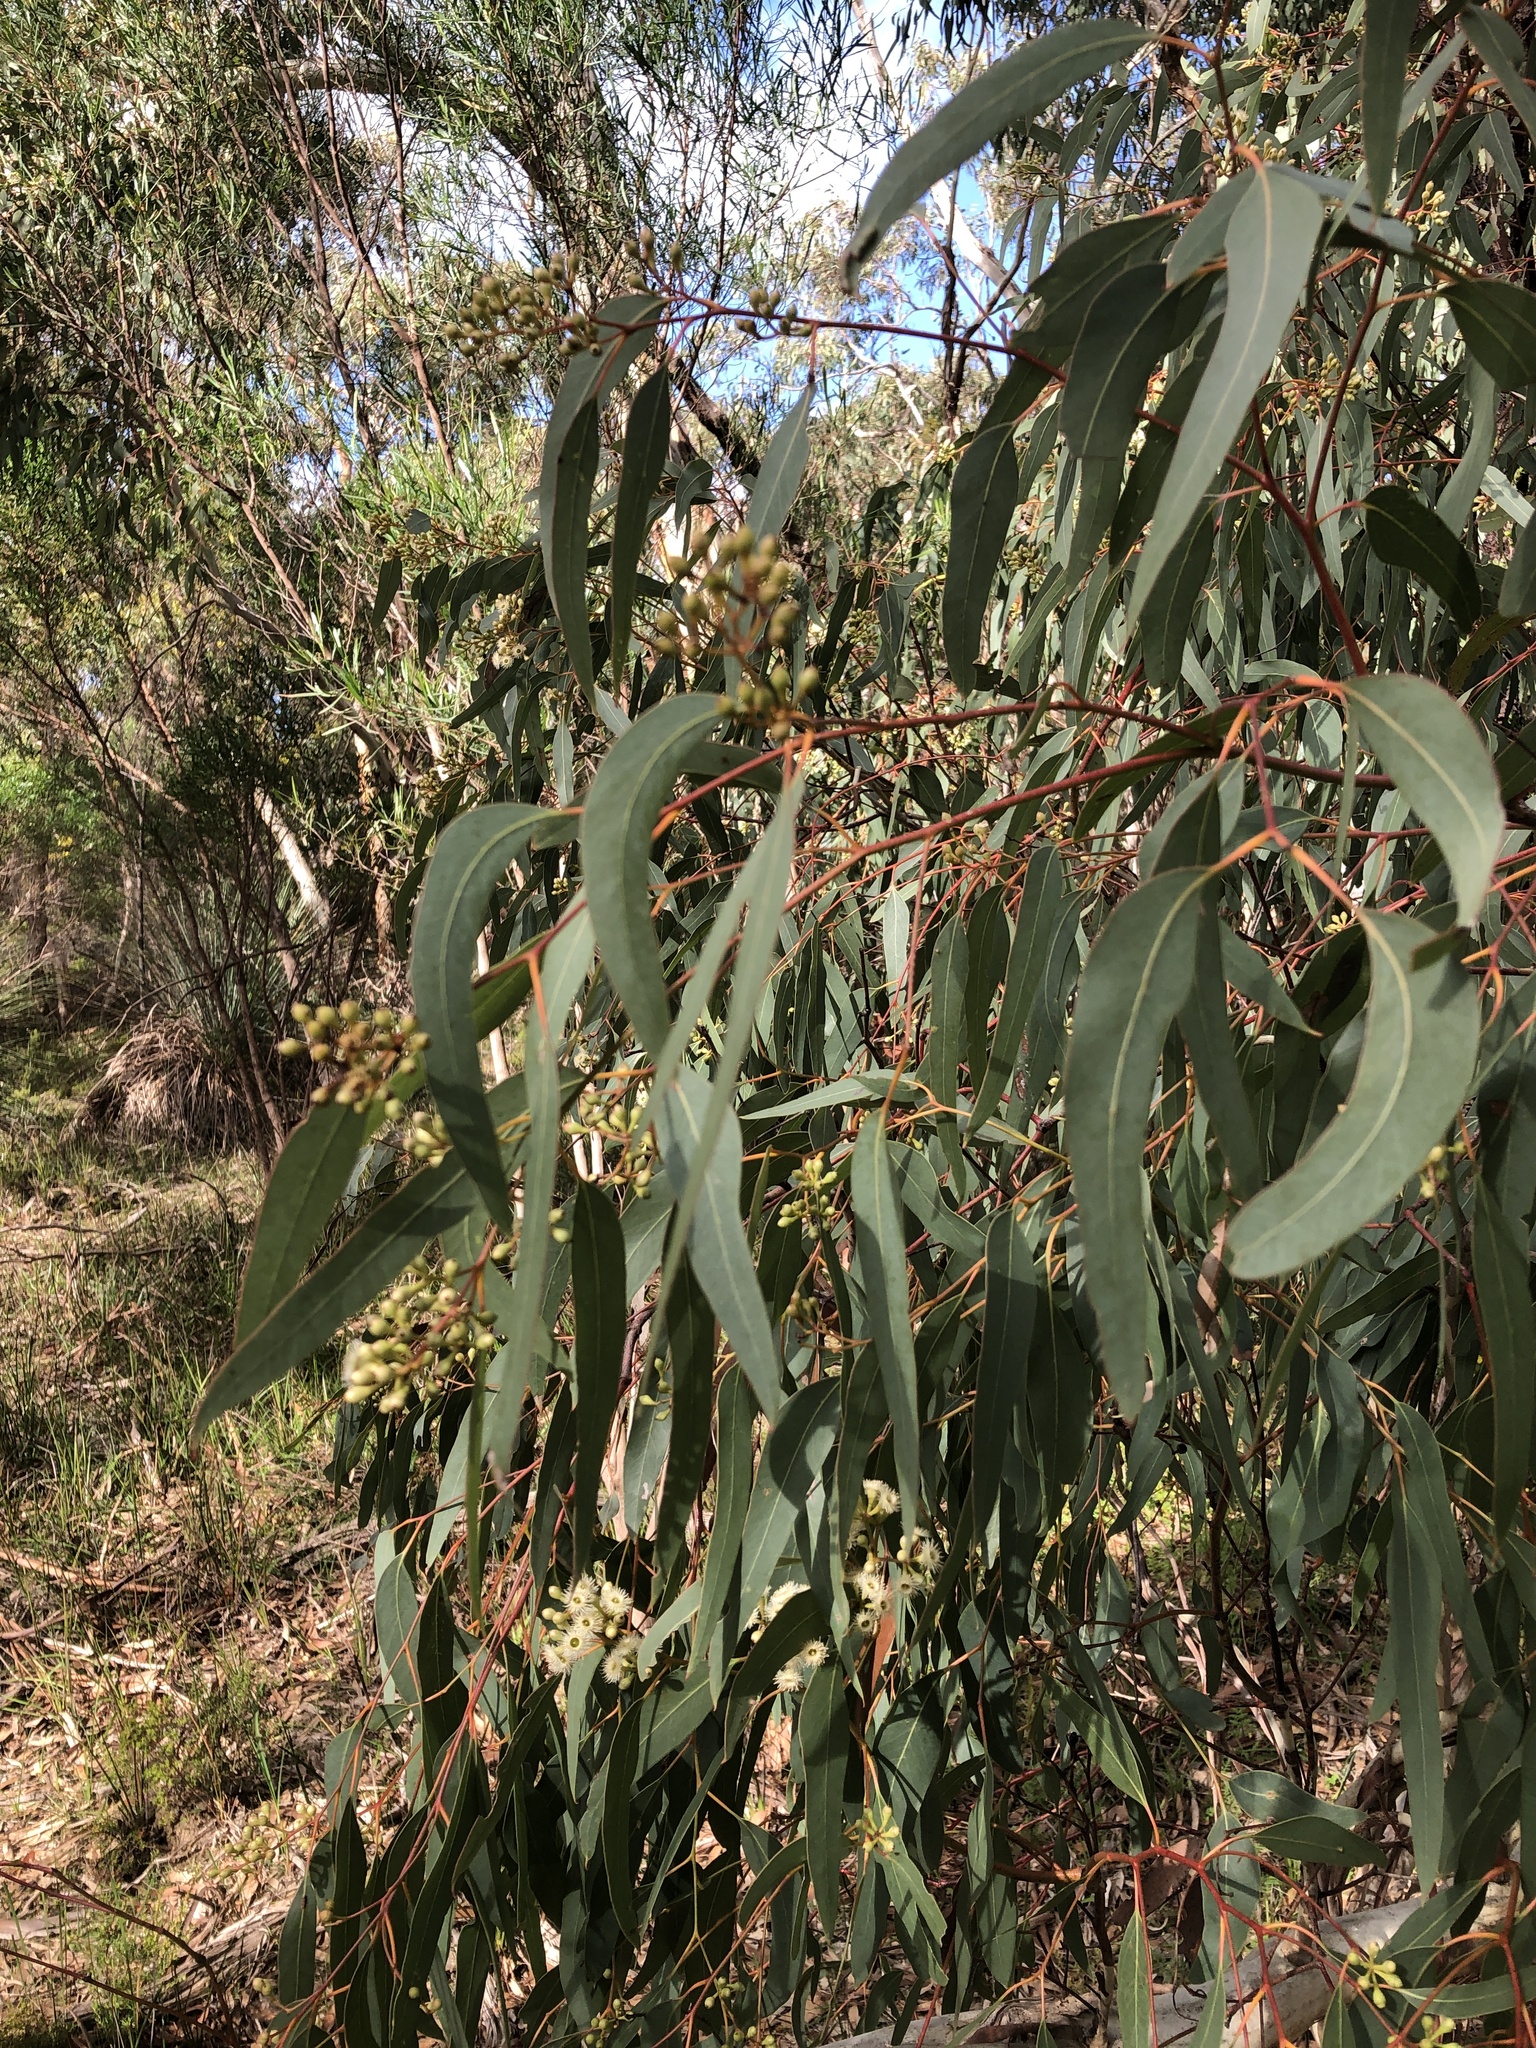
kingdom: Plantae
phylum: Tracheophyta
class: Magnoliopsida
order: Myrtales
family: Myrtaceae
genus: Eucalyptus
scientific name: Eucalyptus fasciculosa
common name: Hill gum
